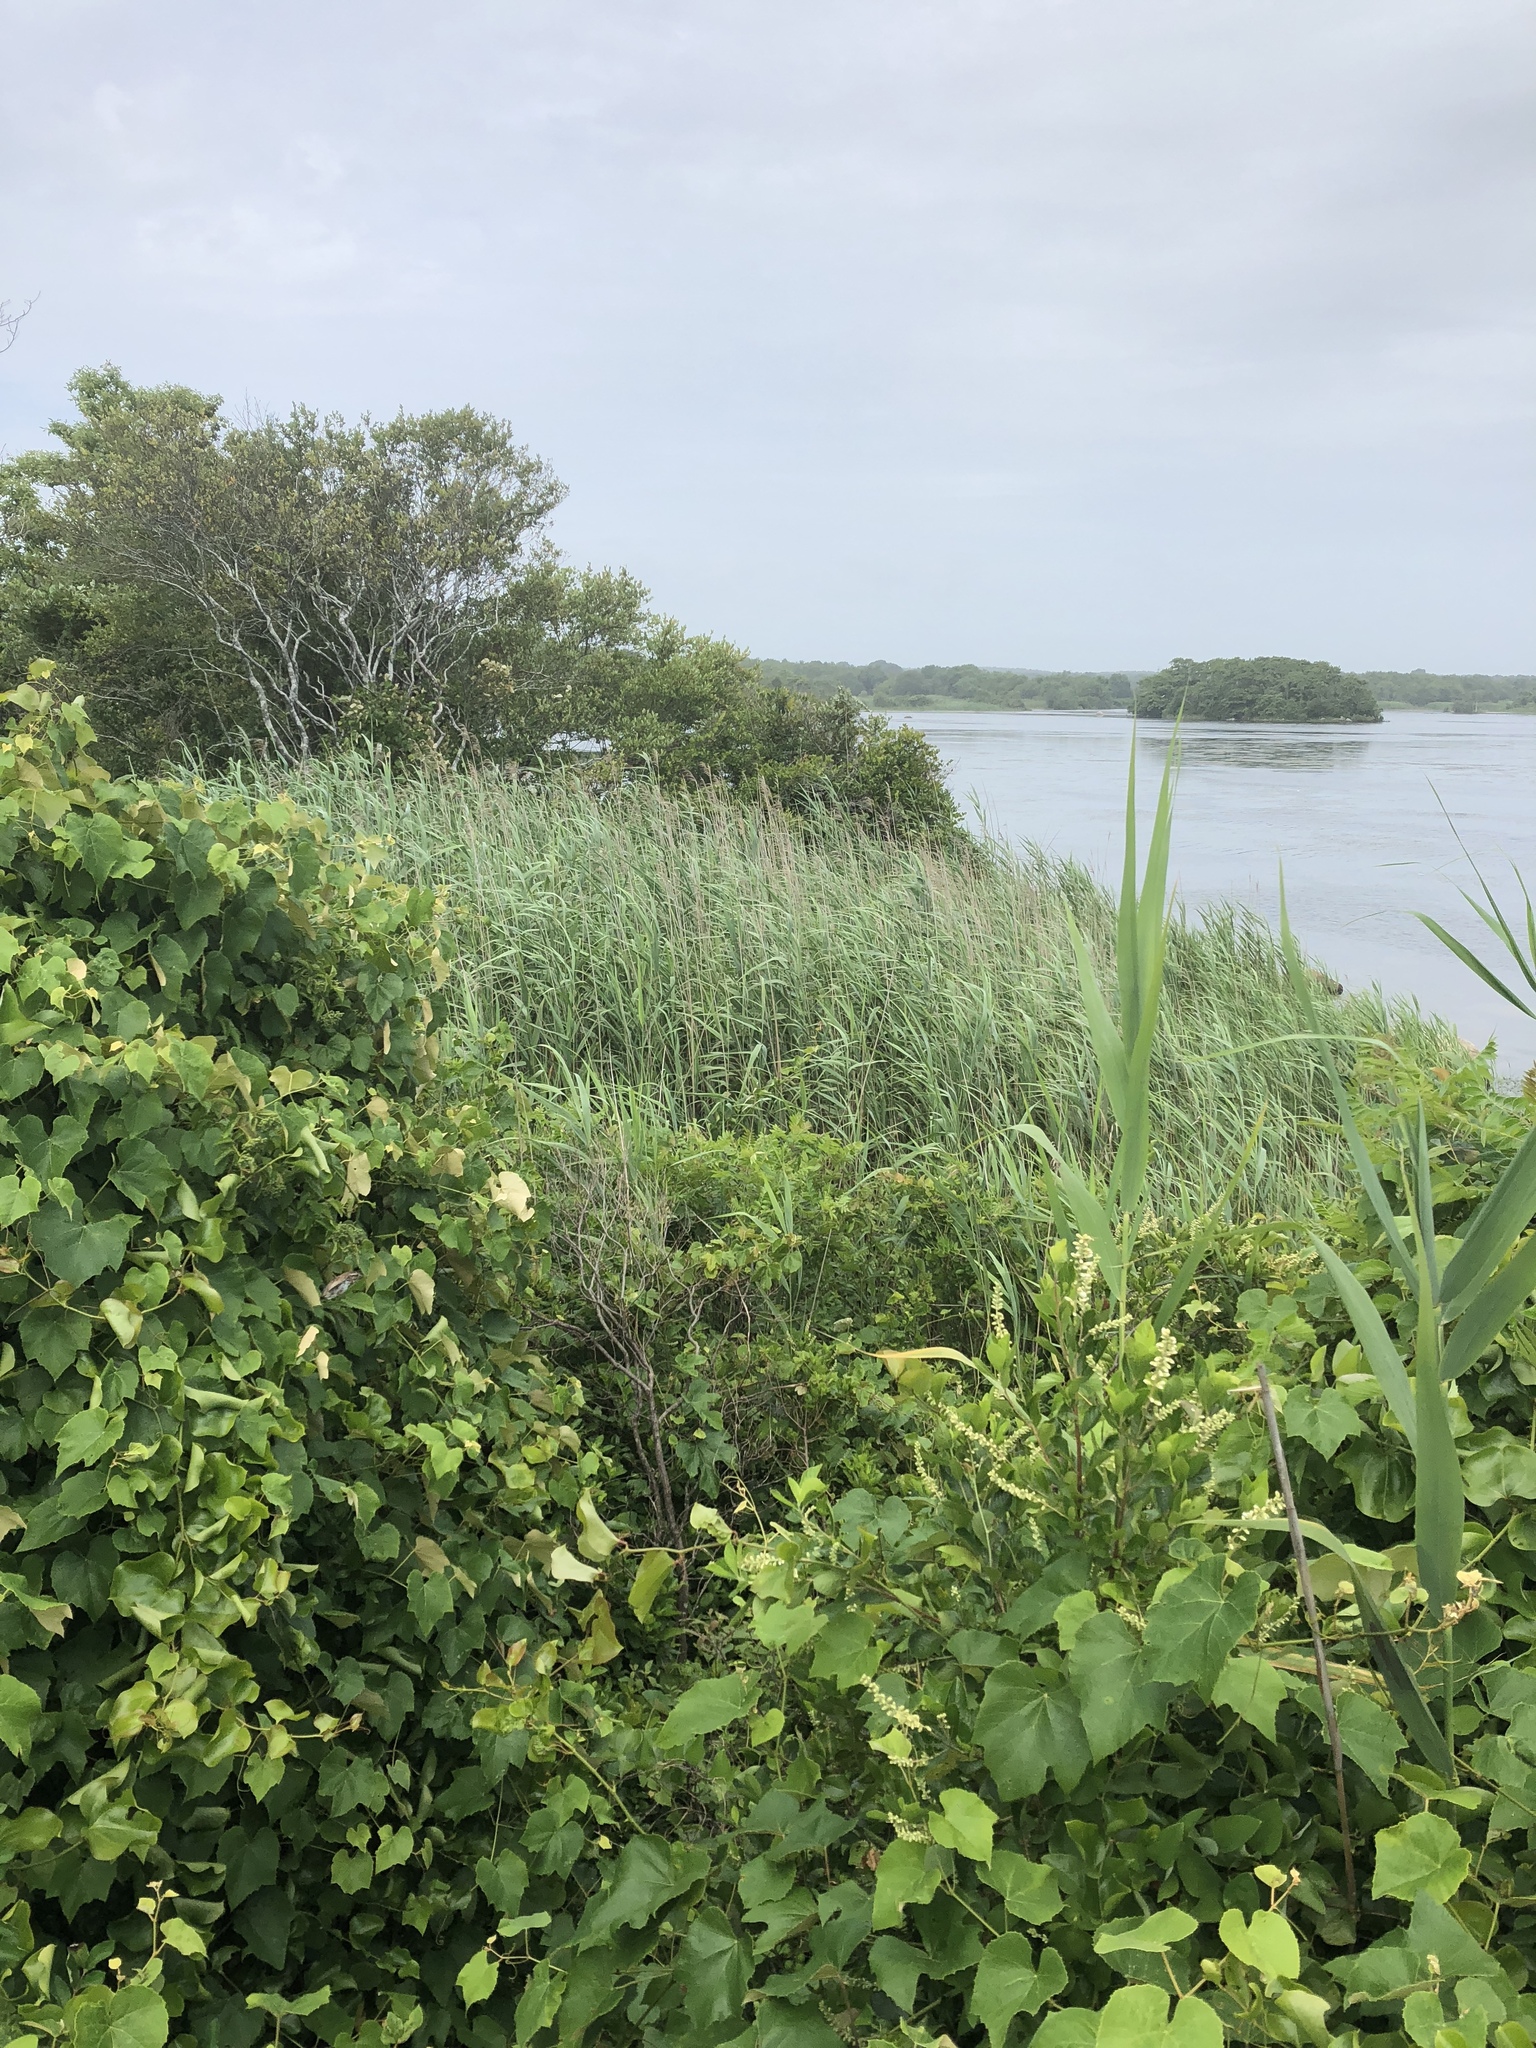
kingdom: Plantae
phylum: Tracheophyta
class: Liliopsida
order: Poales
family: Poaceae
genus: Phragmites
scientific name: Phragmites australis
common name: Common reed
